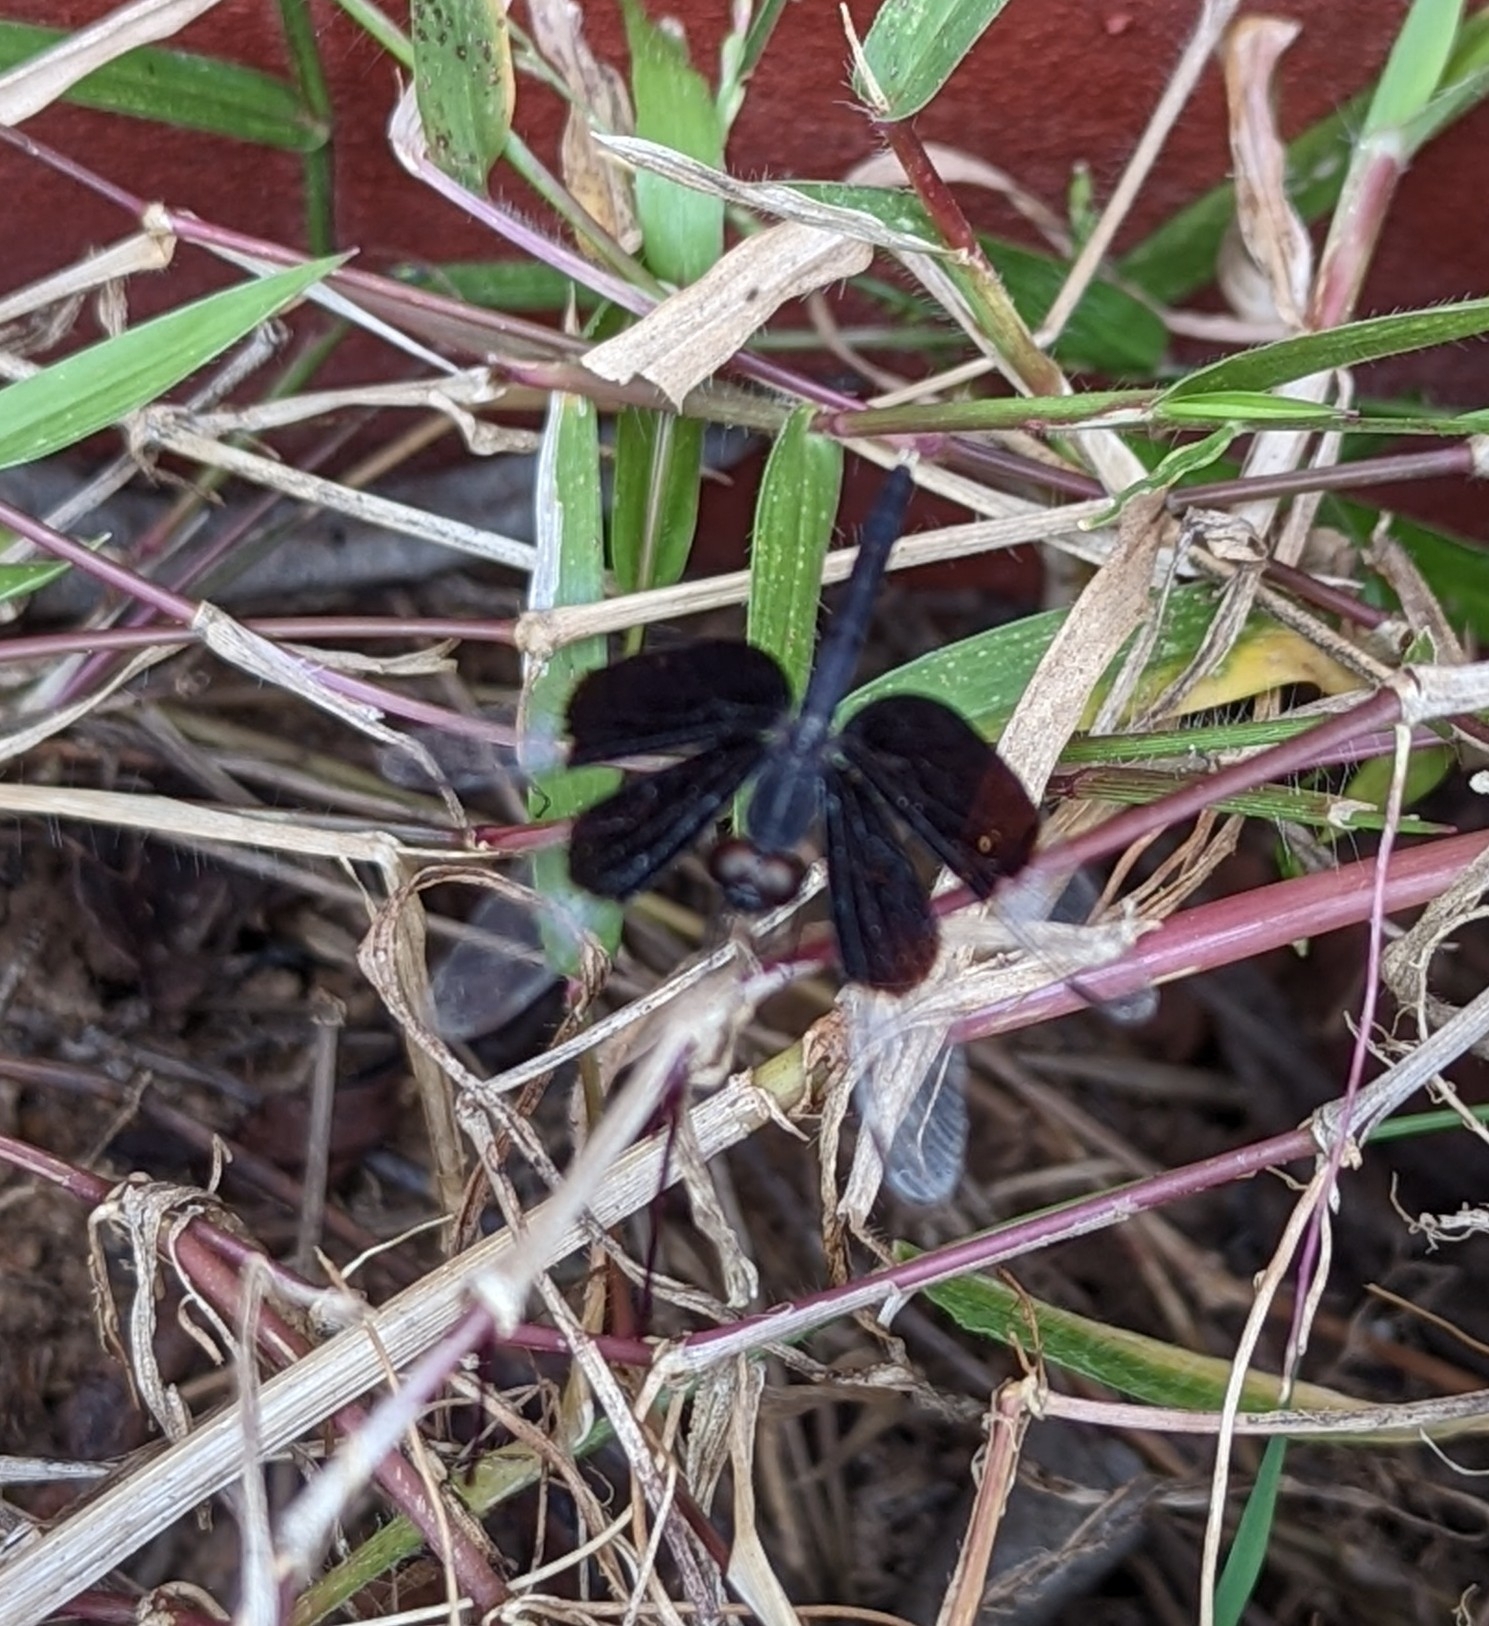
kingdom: Animalia
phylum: Arthropoda
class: Insecta
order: Odonata
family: Libellulidae
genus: Neurothemis
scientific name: Neurothemis tullia
